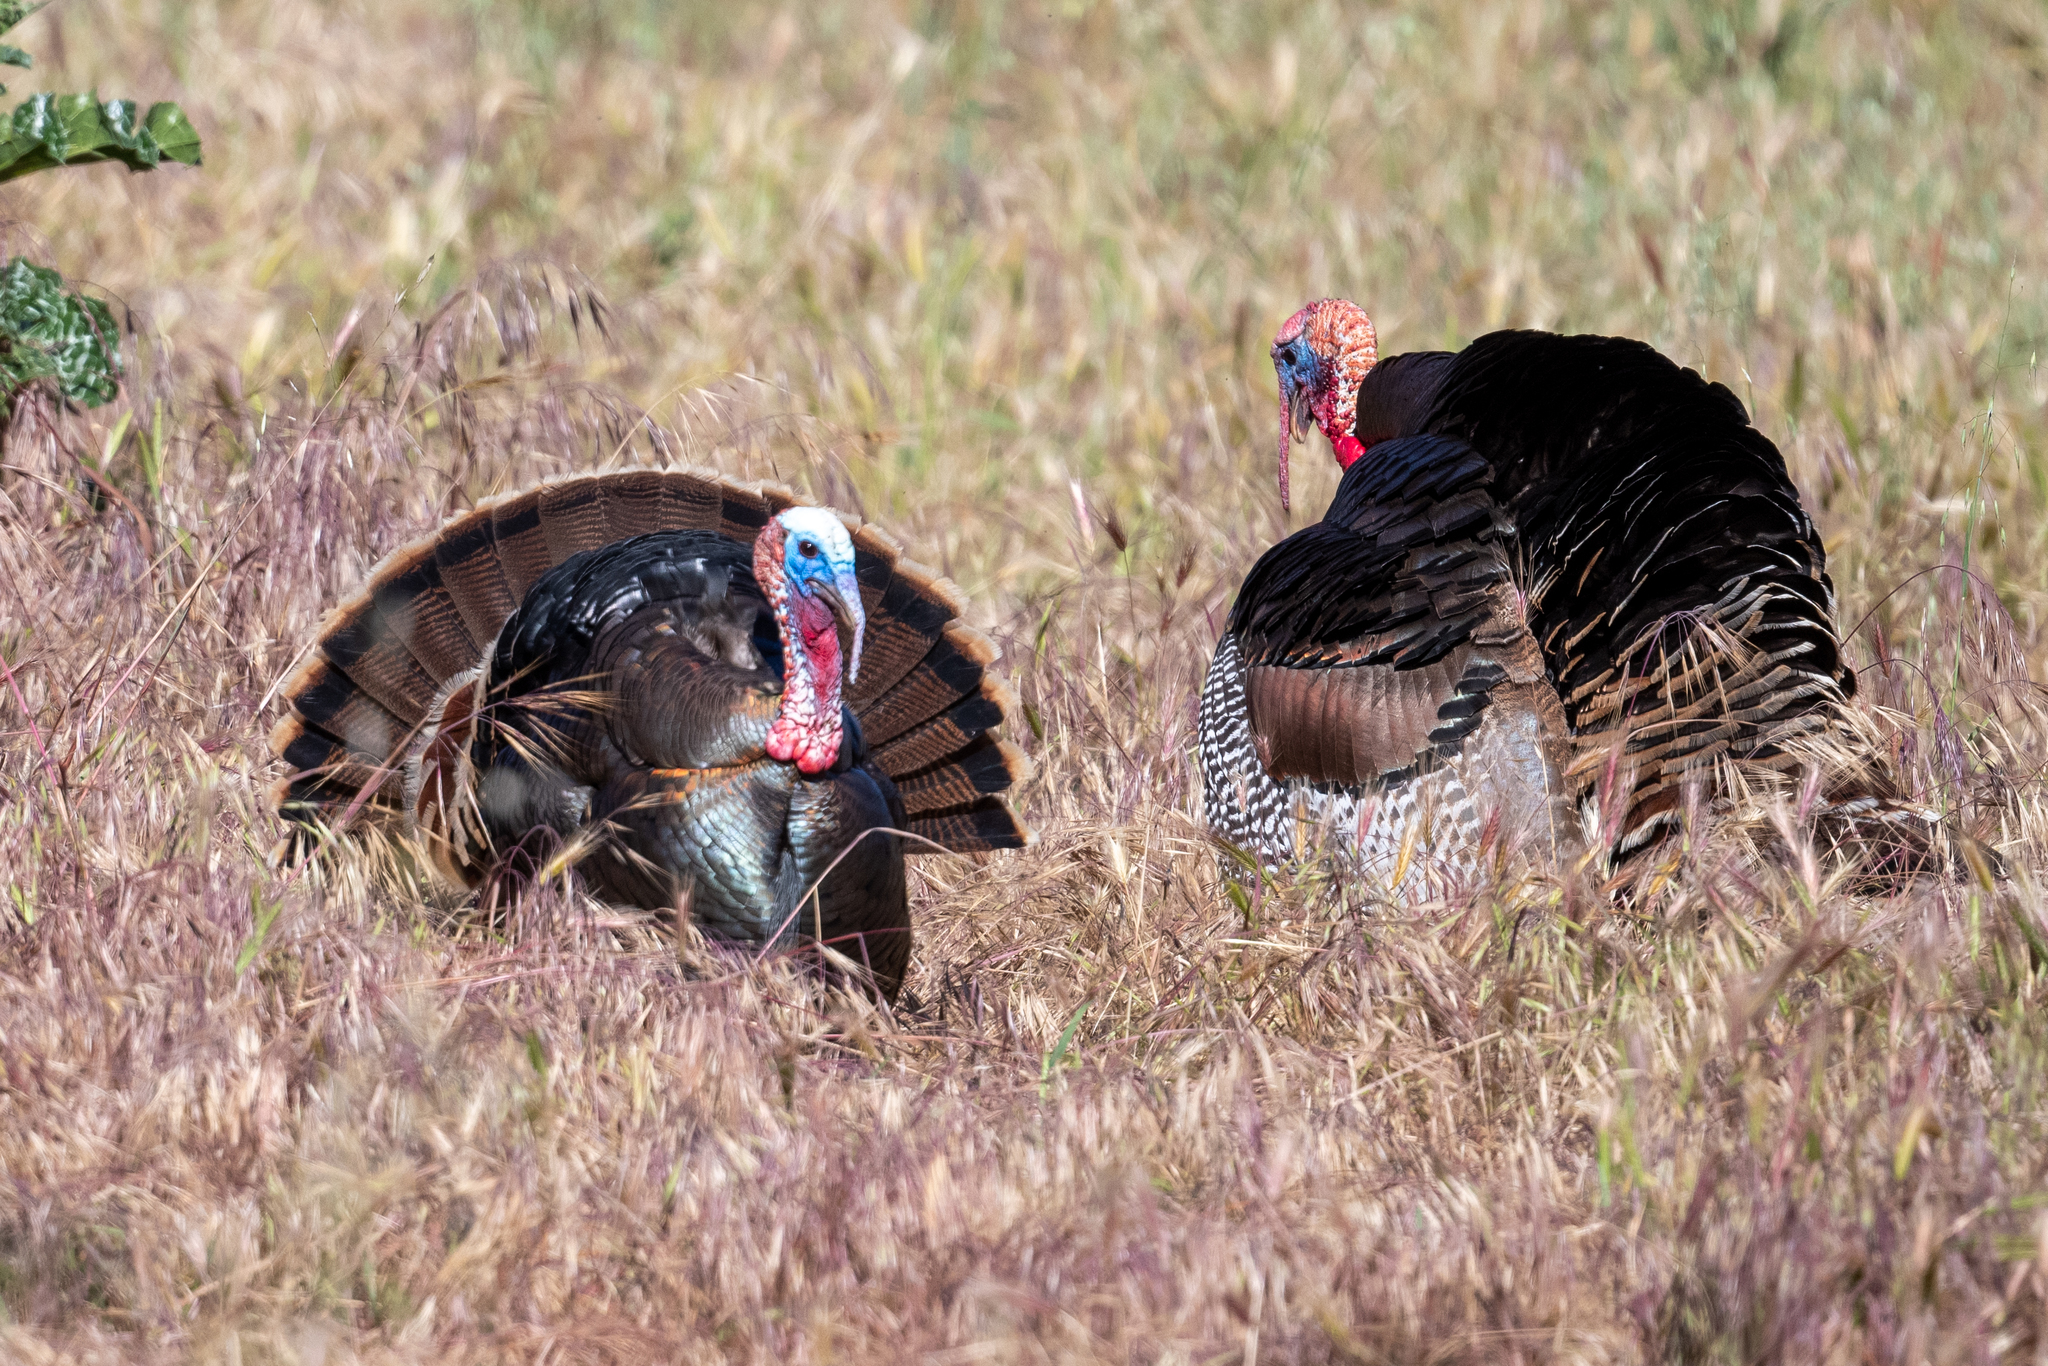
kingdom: Animalia
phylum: Chordata
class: Aves
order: Galliformes
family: Phasianidae
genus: Meleagris
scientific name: Meleagris gallopavo
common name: Wild turkey
